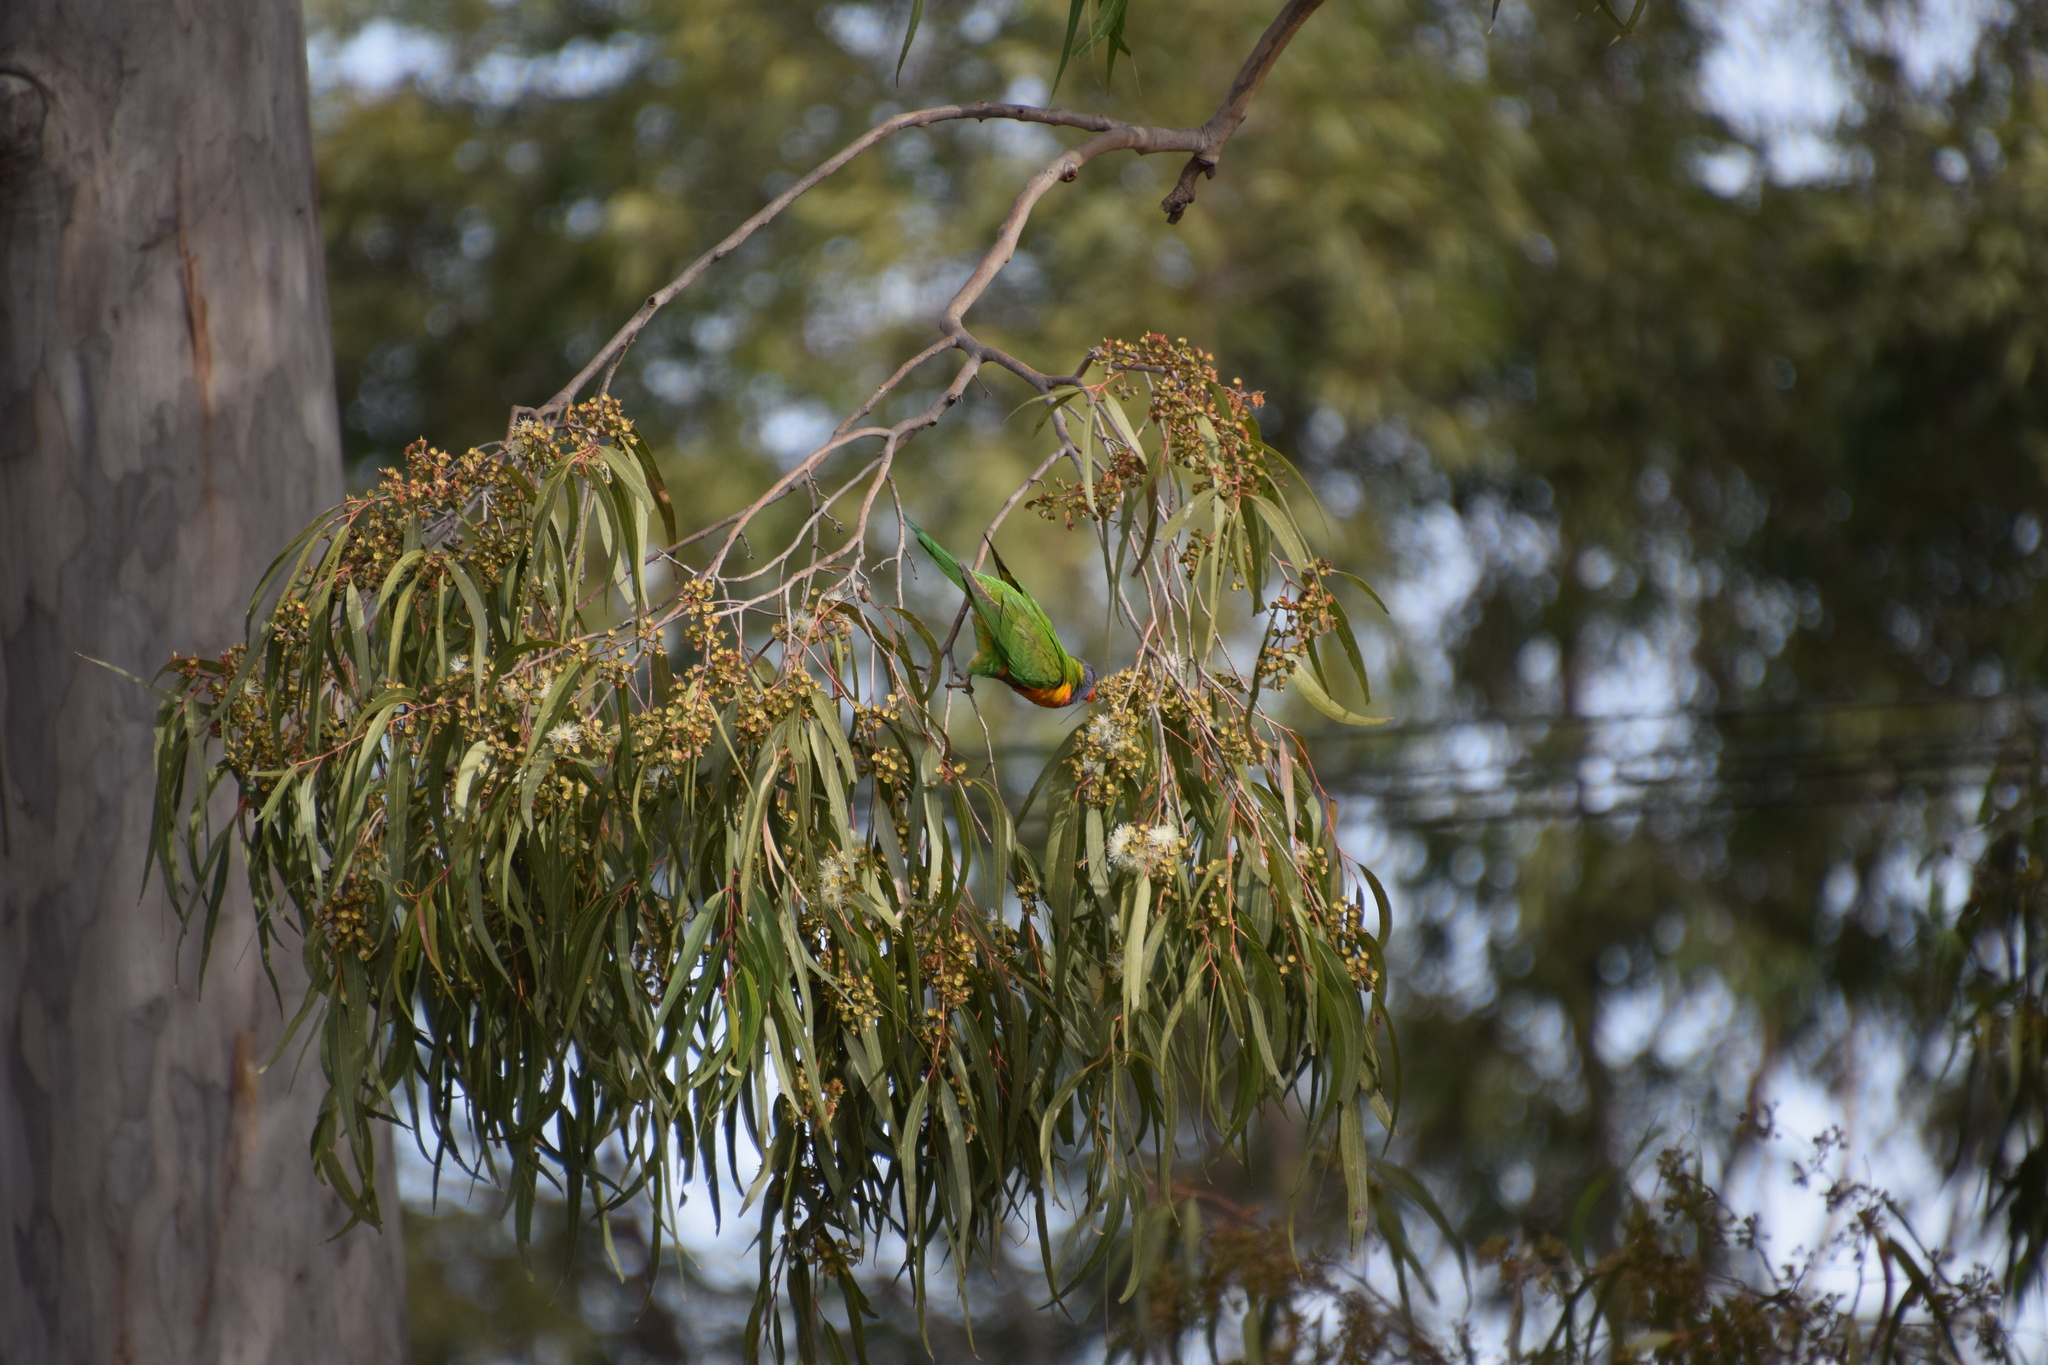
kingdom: Animalia
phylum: Chordata
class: Aves
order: Psittaciformes
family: Psittacidae
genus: Trichoglossus
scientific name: Trichoglossus haematodus
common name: Coconut lorikeet
